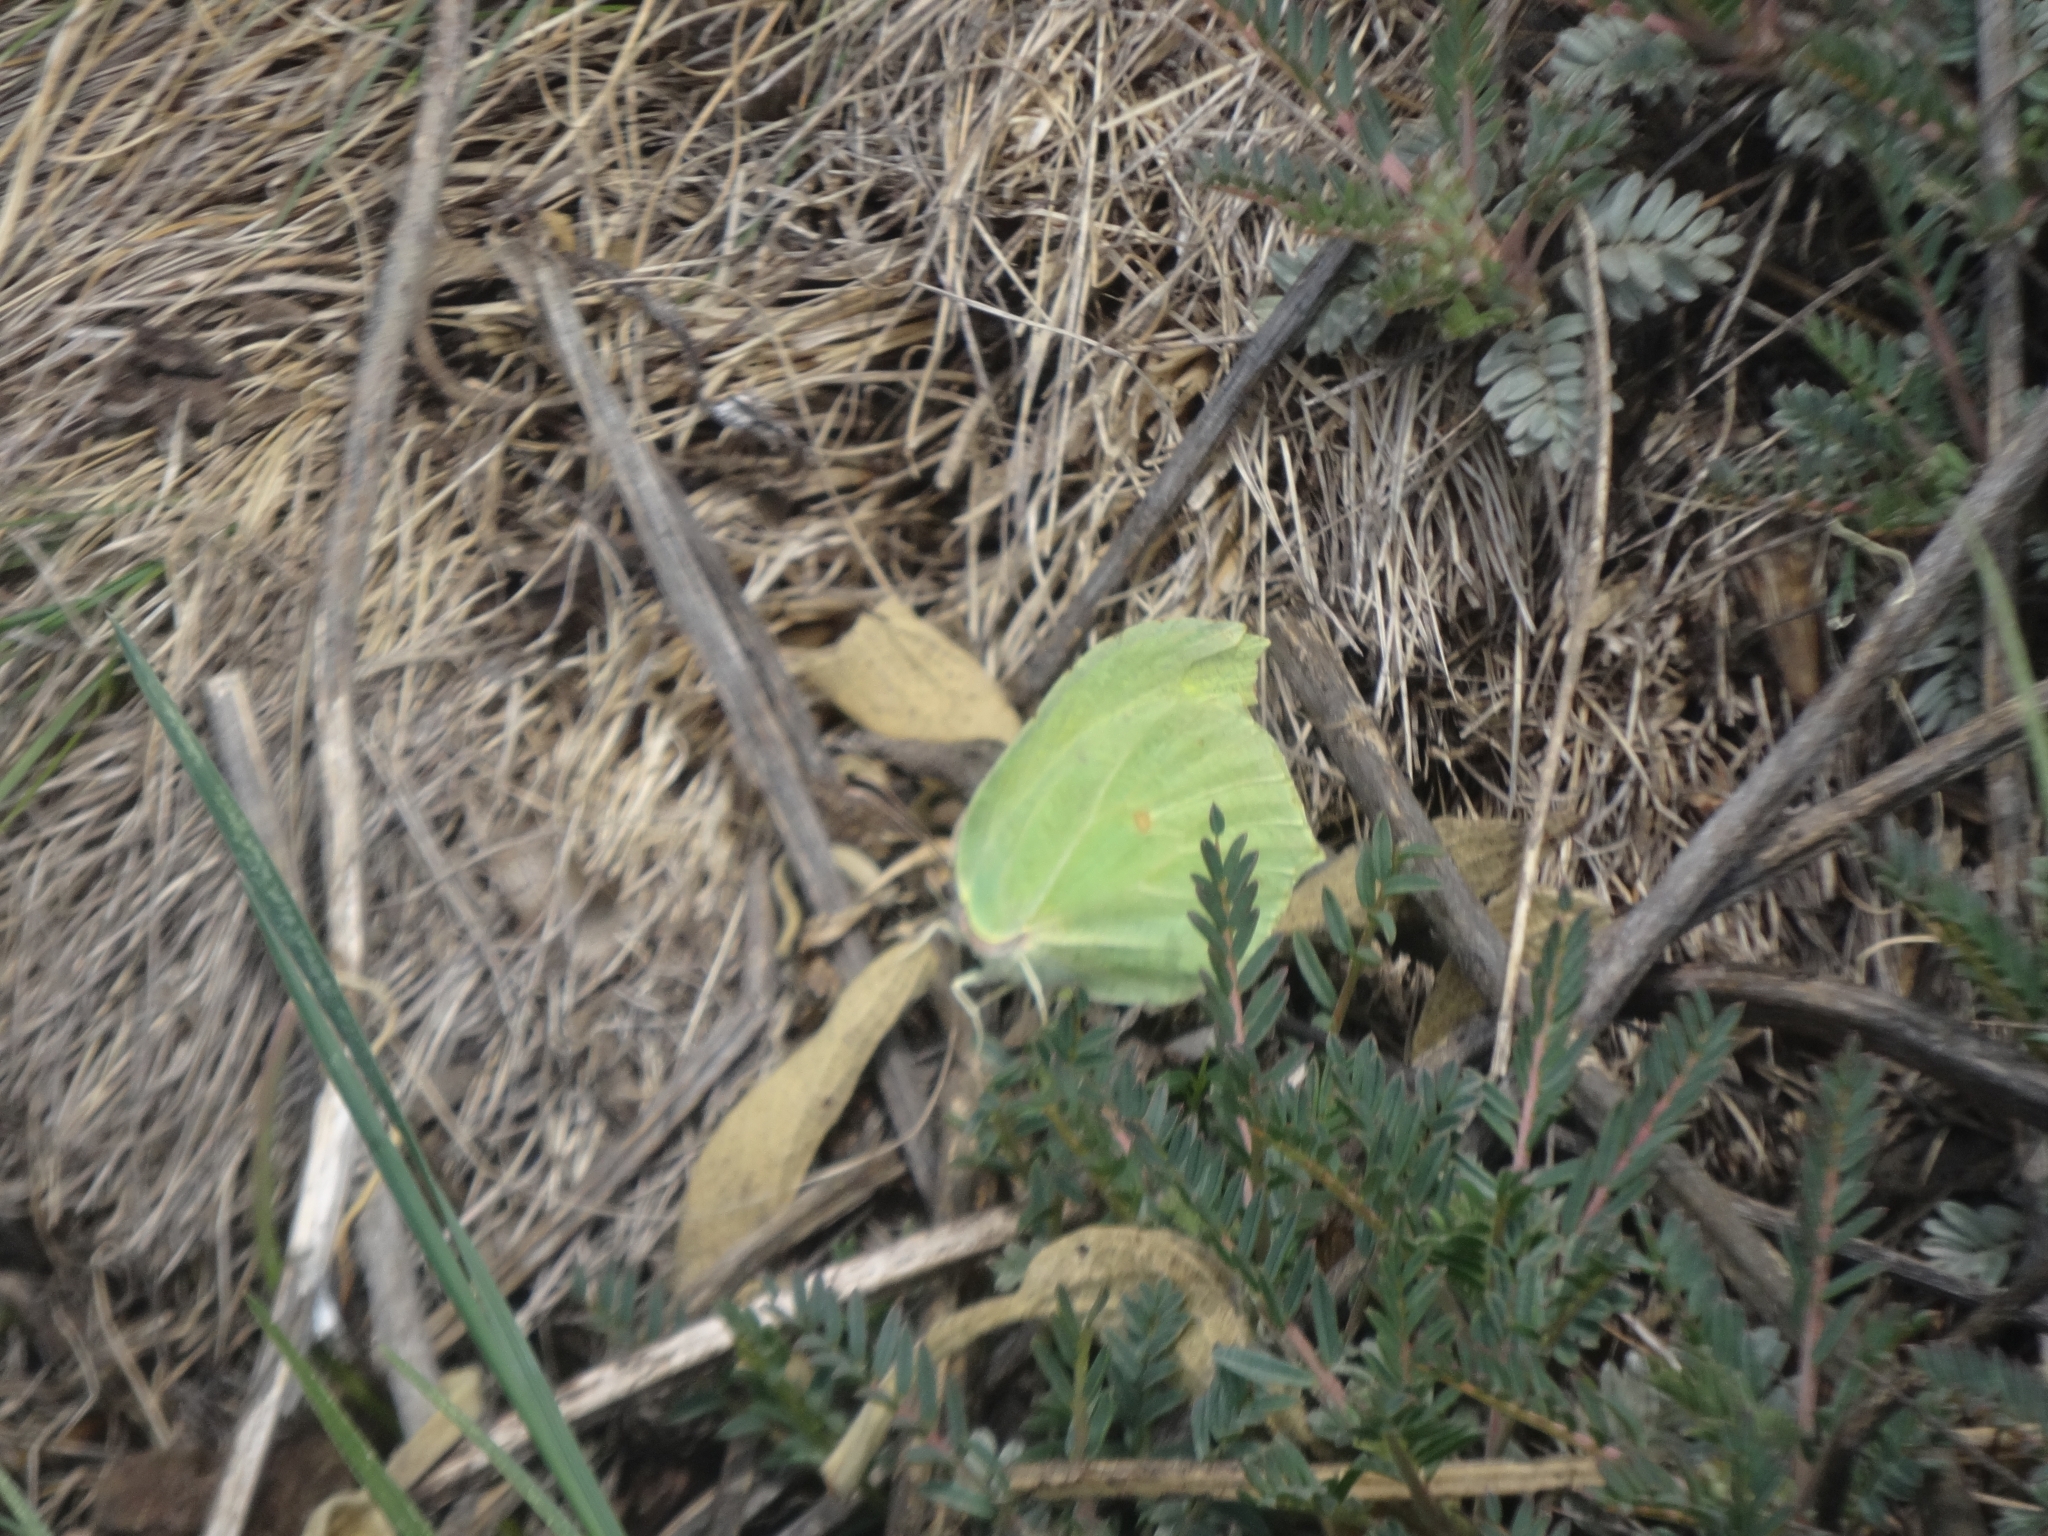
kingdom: Animalia
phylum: Arthropoda
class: Insecta
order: Lepidoptera
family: Pieridae
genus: Gonepteryx
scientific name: Gonepteryx rhamni
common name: Brimstone
